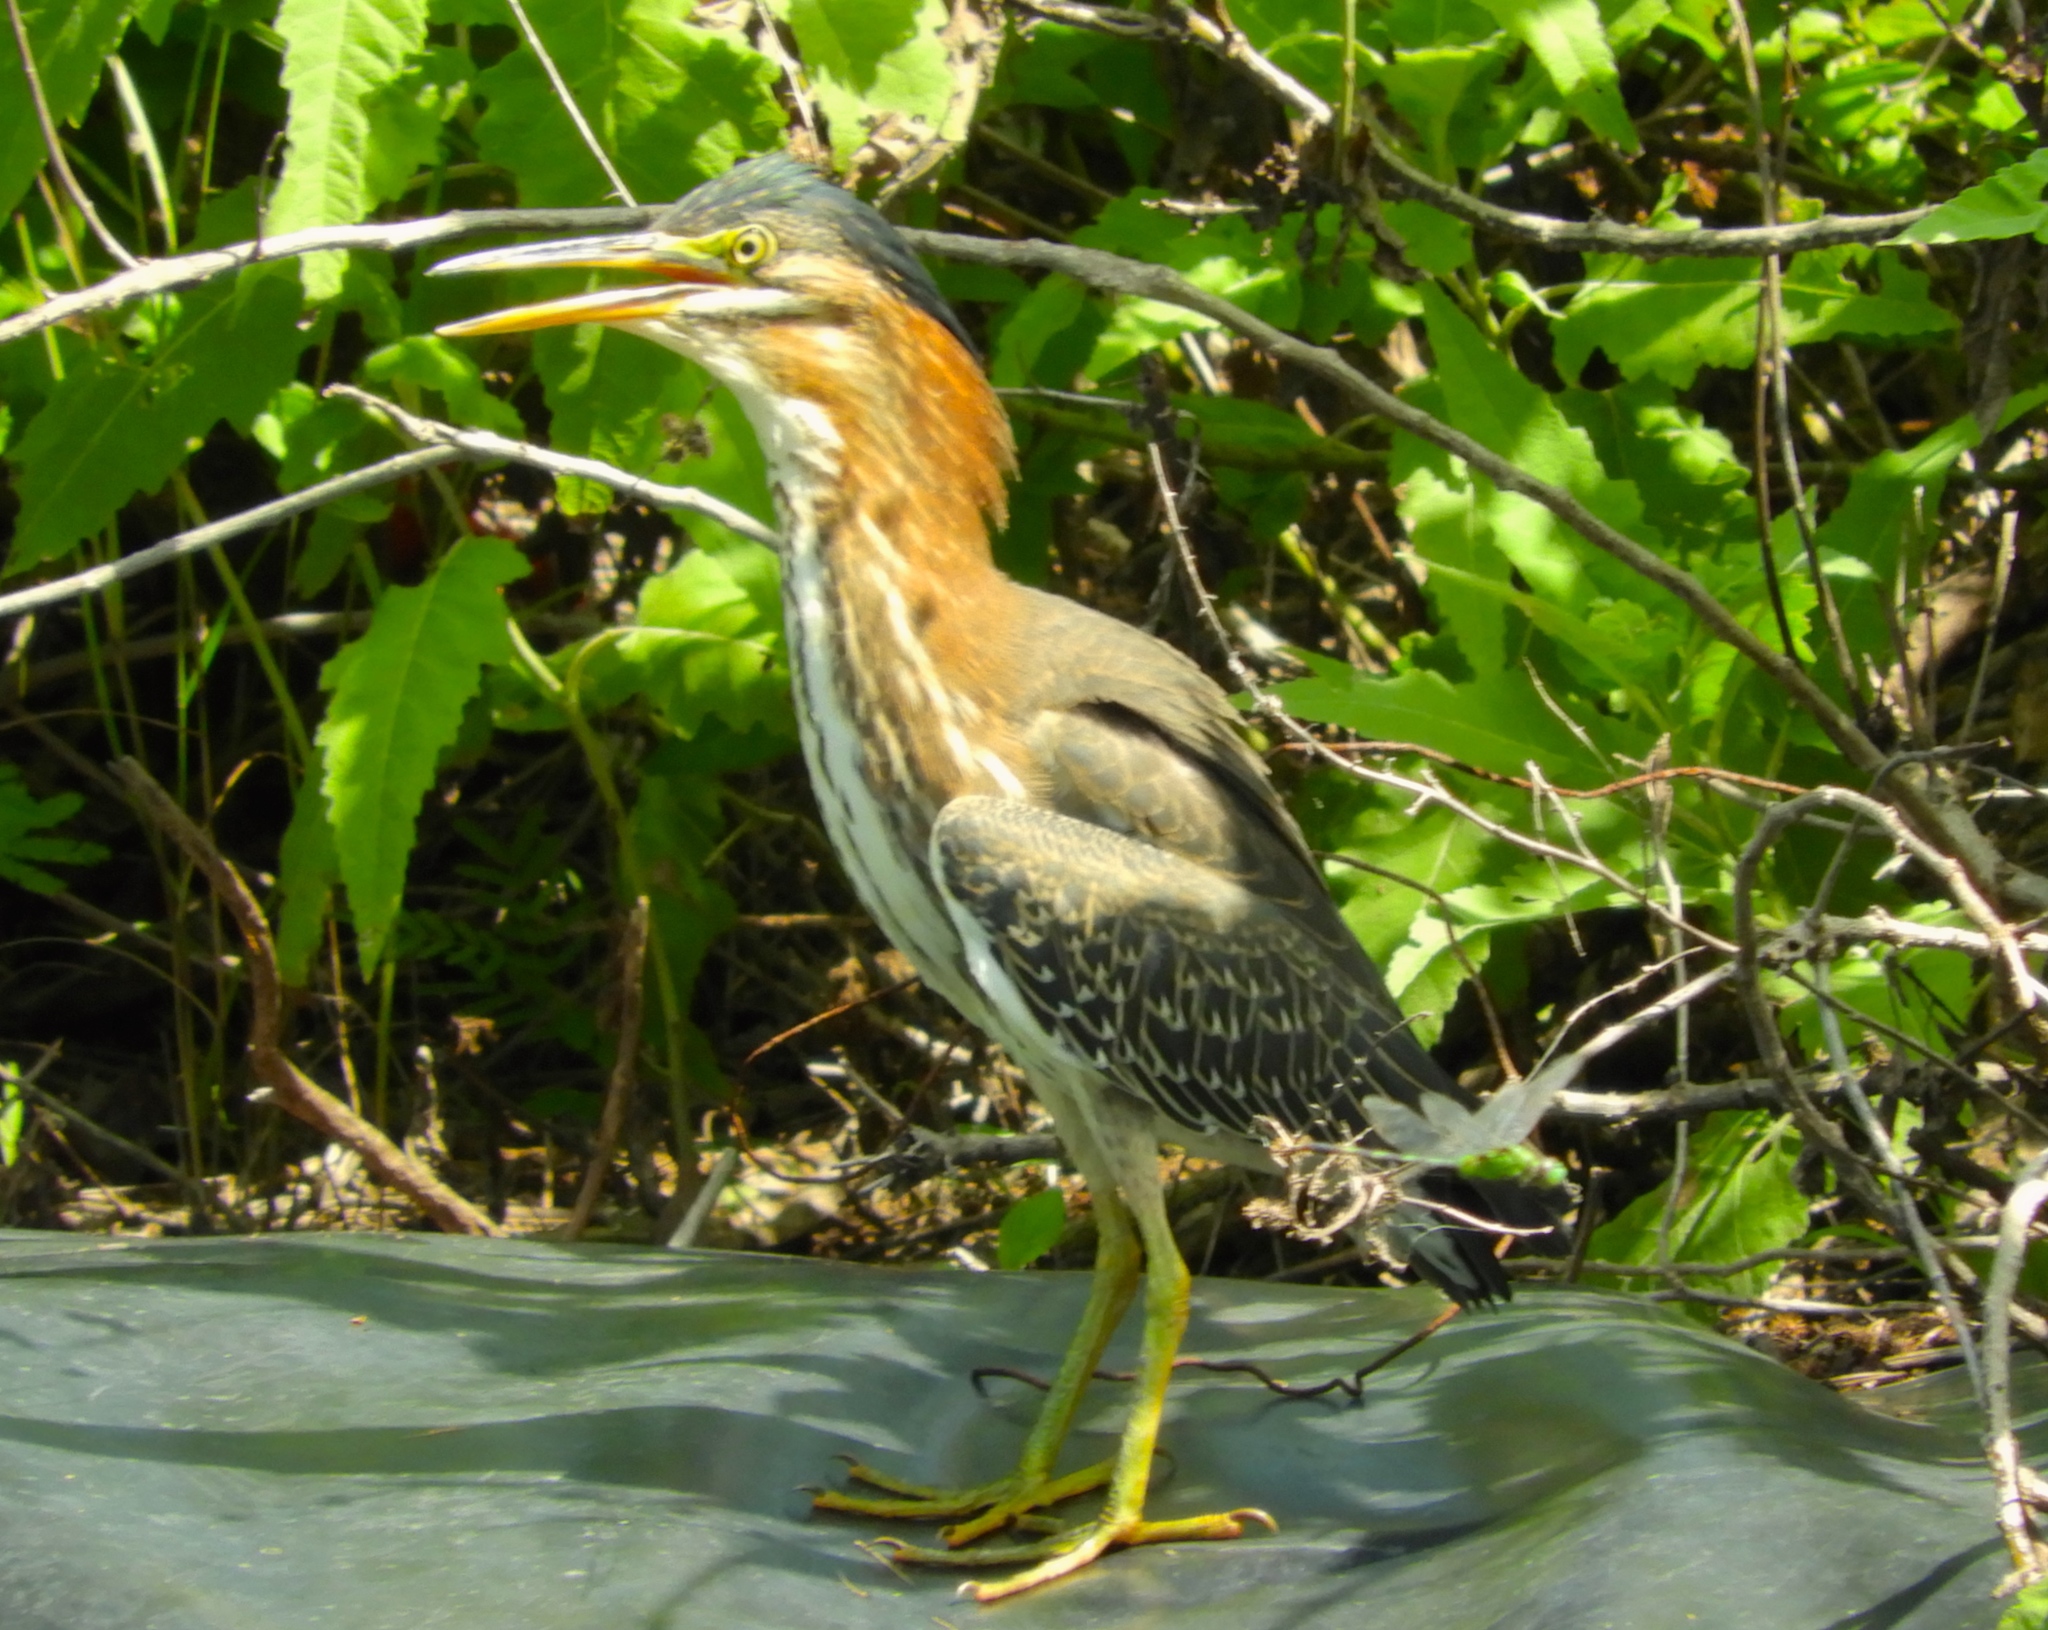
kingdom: Animalia
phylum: Chordata
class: Aves
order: Pelecaniformes
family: Ardeidae
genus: Butorides
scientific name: Butorides virescens
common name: Green heron
